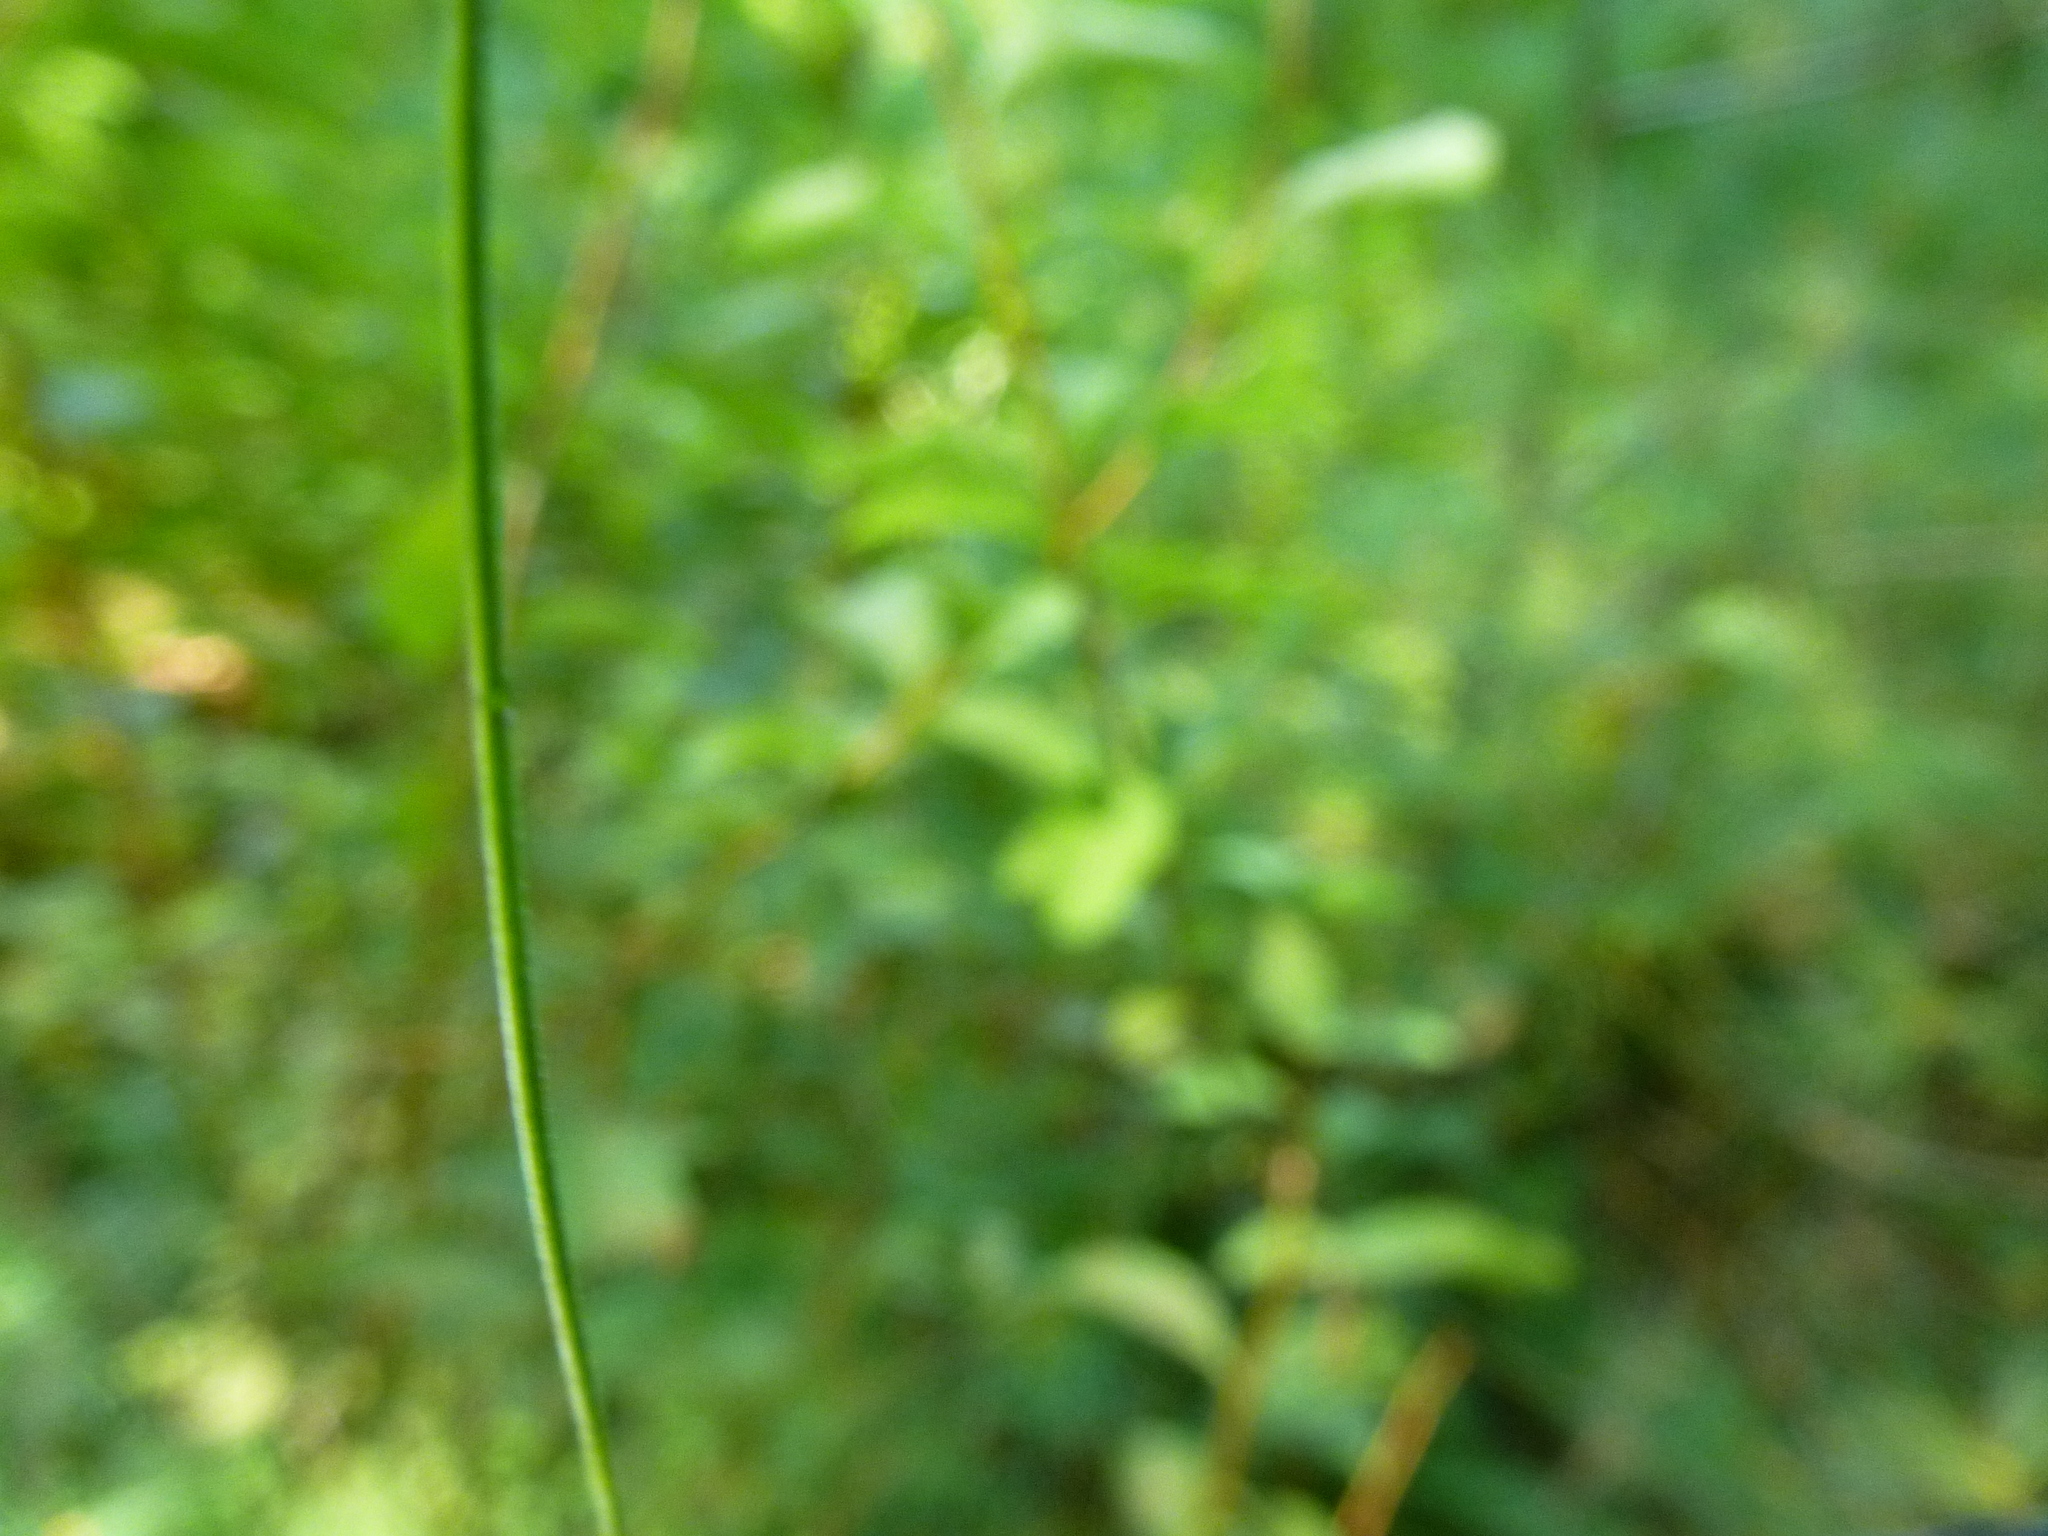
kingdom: Plantae
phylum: Tracheophyta
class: Magnoliopsida
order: Rosales
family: Rosaceae
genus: Spiraea
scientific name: Spiraea alba
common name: Pale bridewort
